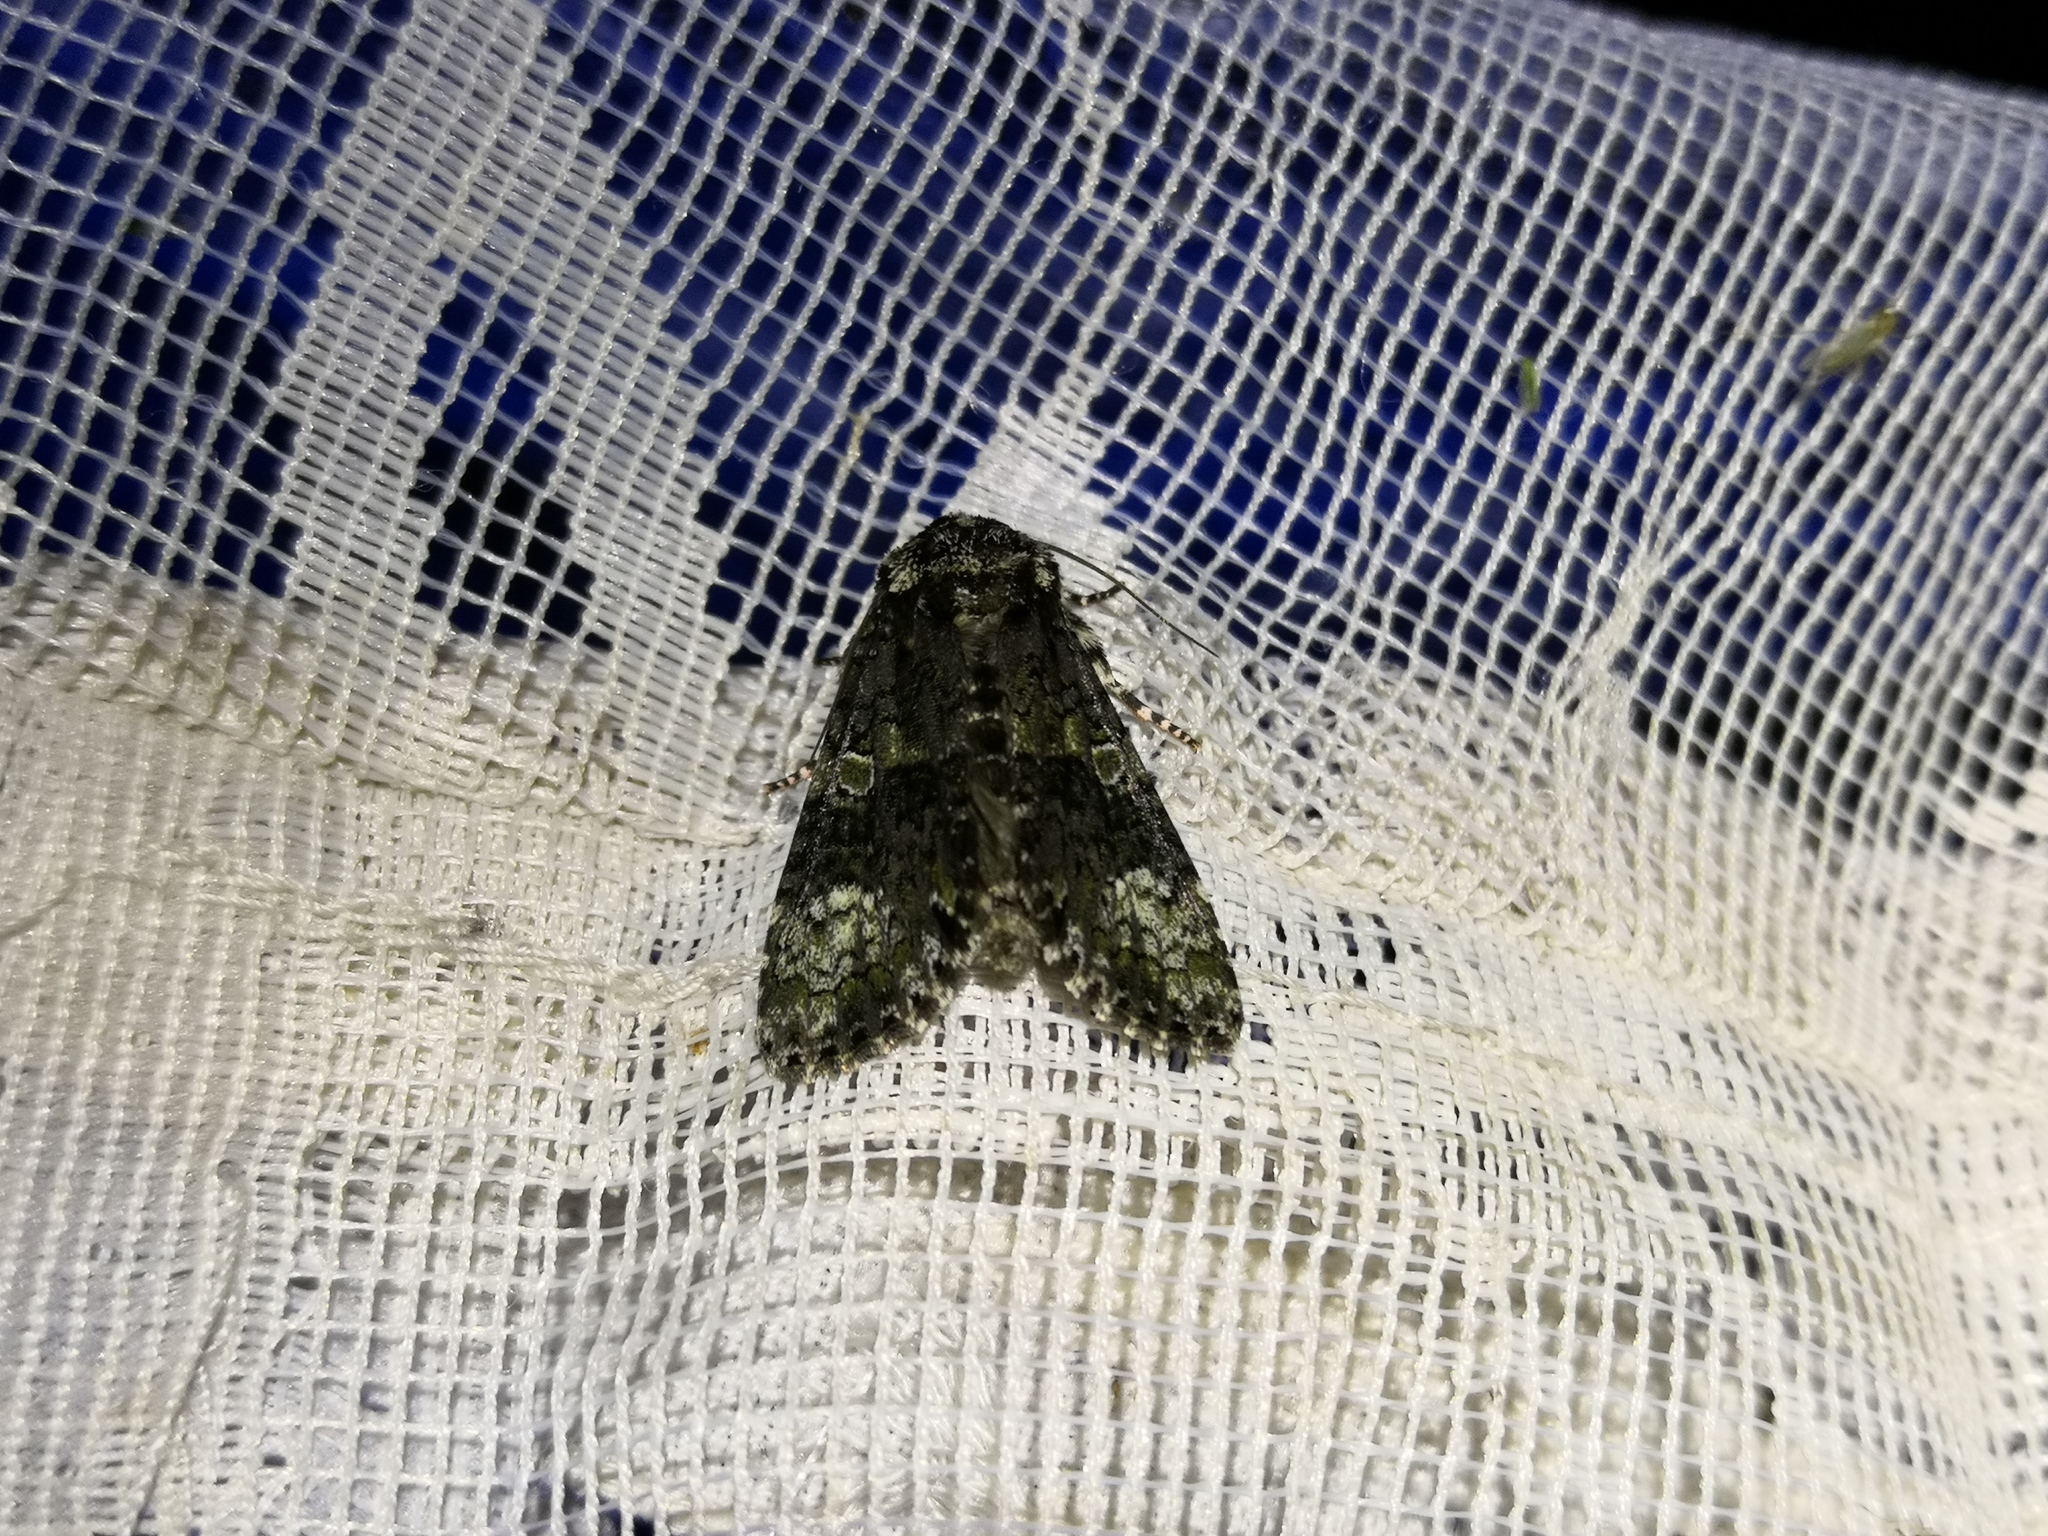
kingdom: Animalia
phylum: Arthropoda
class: Insecta
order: Lepidoptera
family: Noctuidae
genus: Craniophora
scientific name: Craniophora ligustri
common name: Coronet
